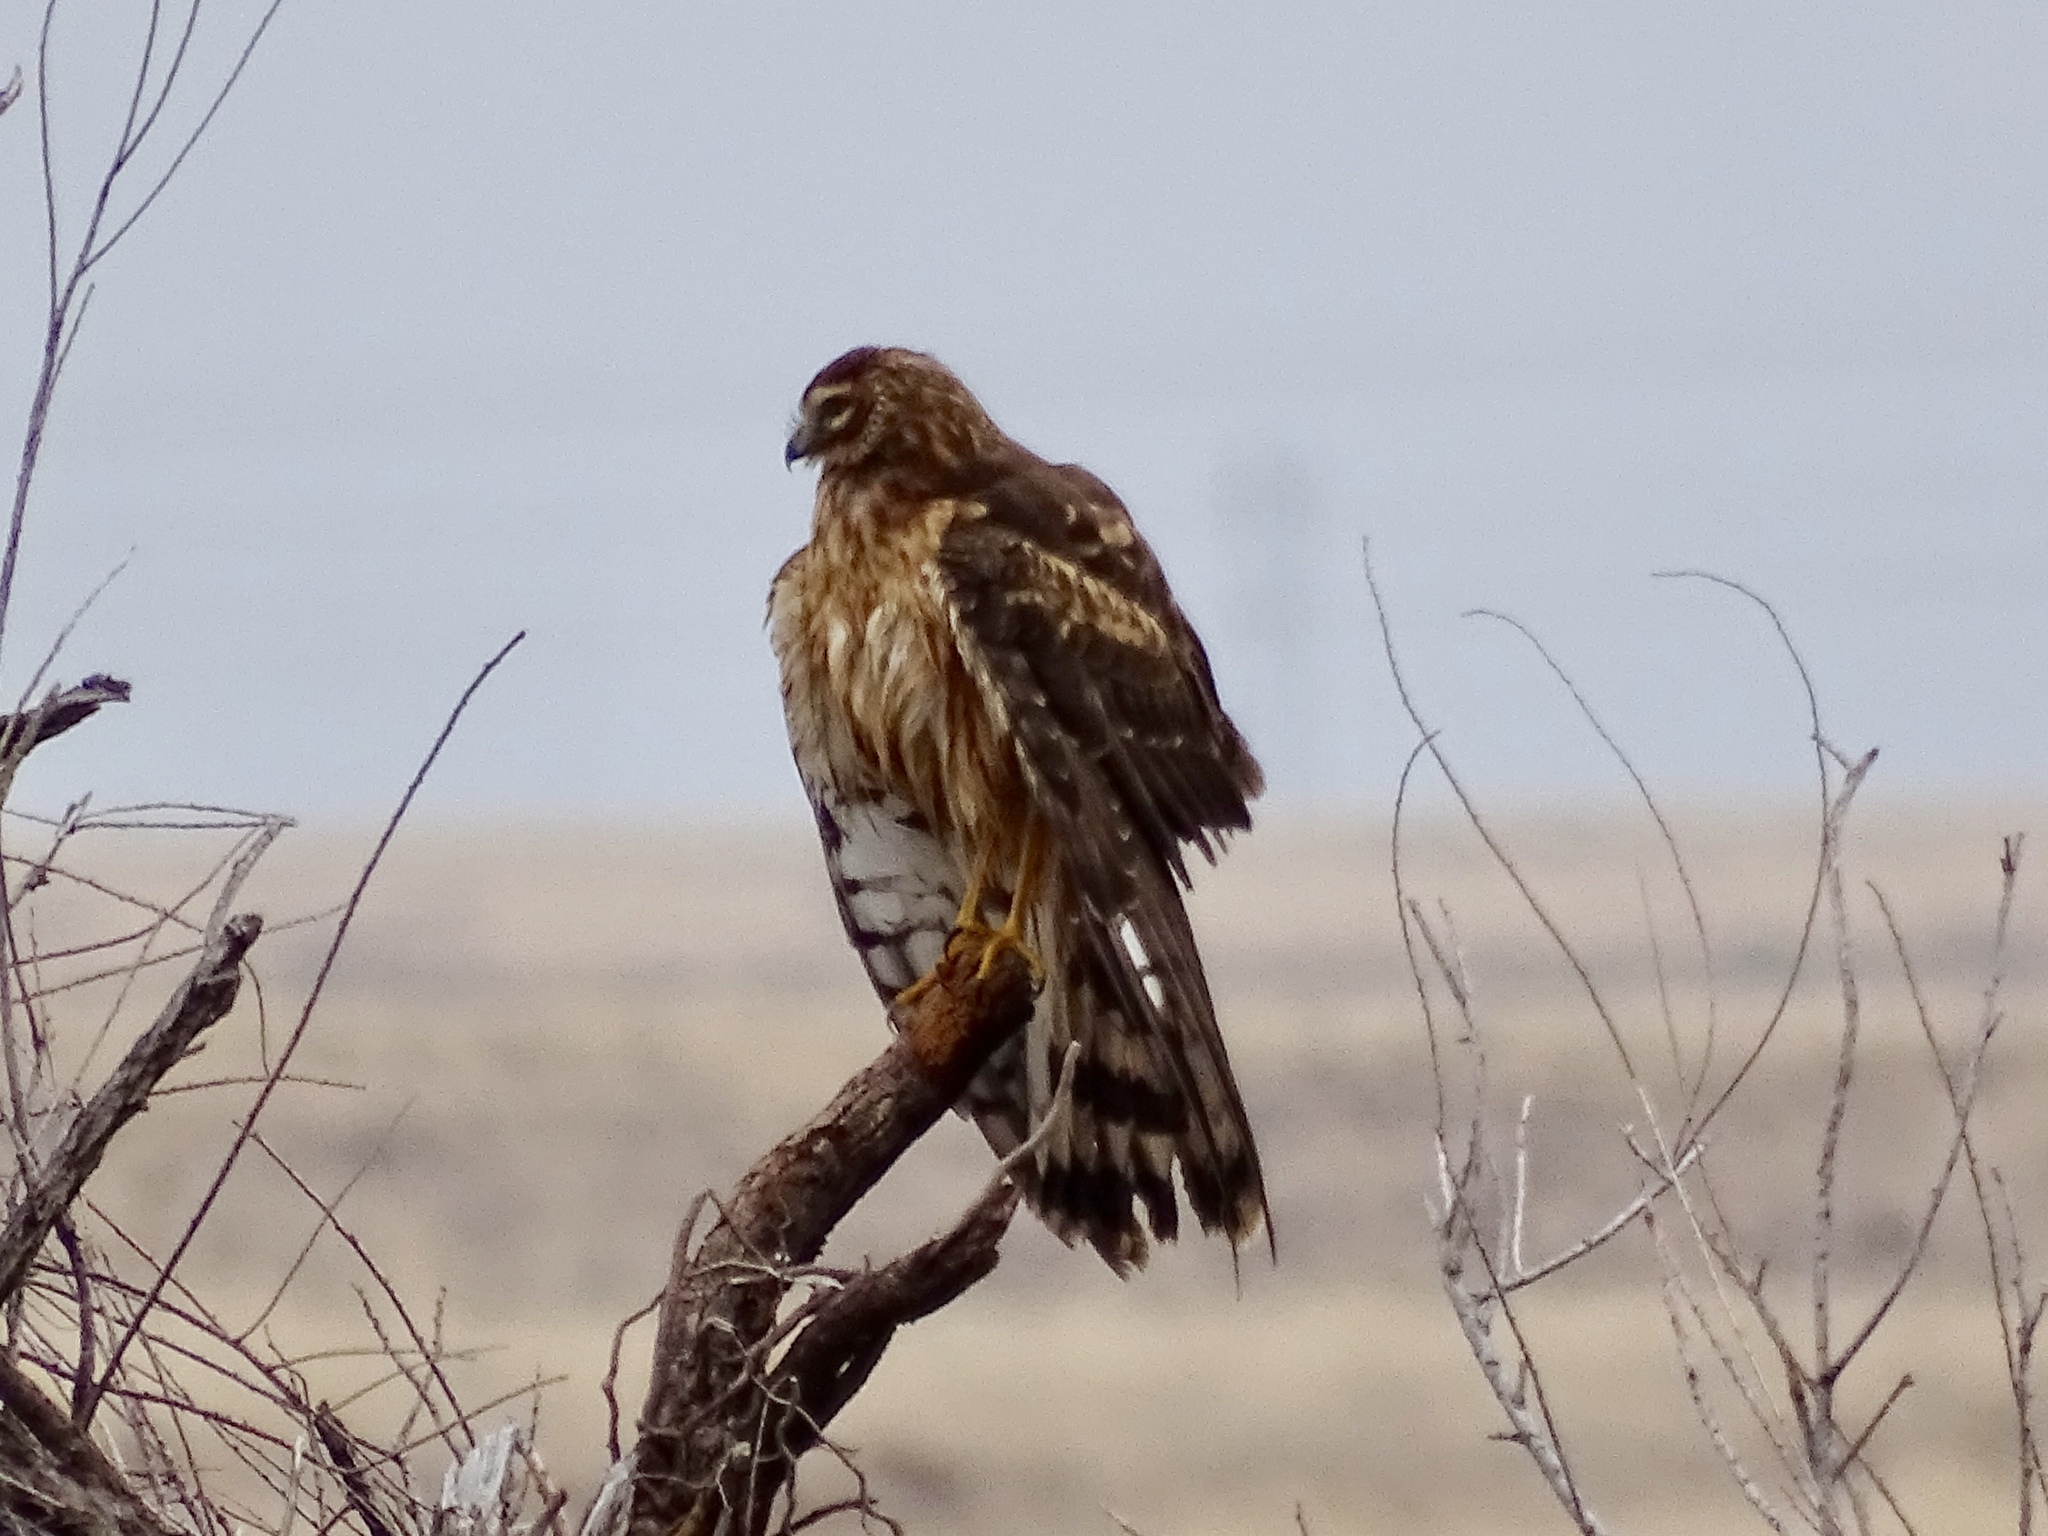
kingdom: Animalia
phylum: Chordata
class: Aves
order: Accipitriformes
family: Accipitridae
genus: Circus
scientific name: Circus cyaneus
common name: Hen harrier
